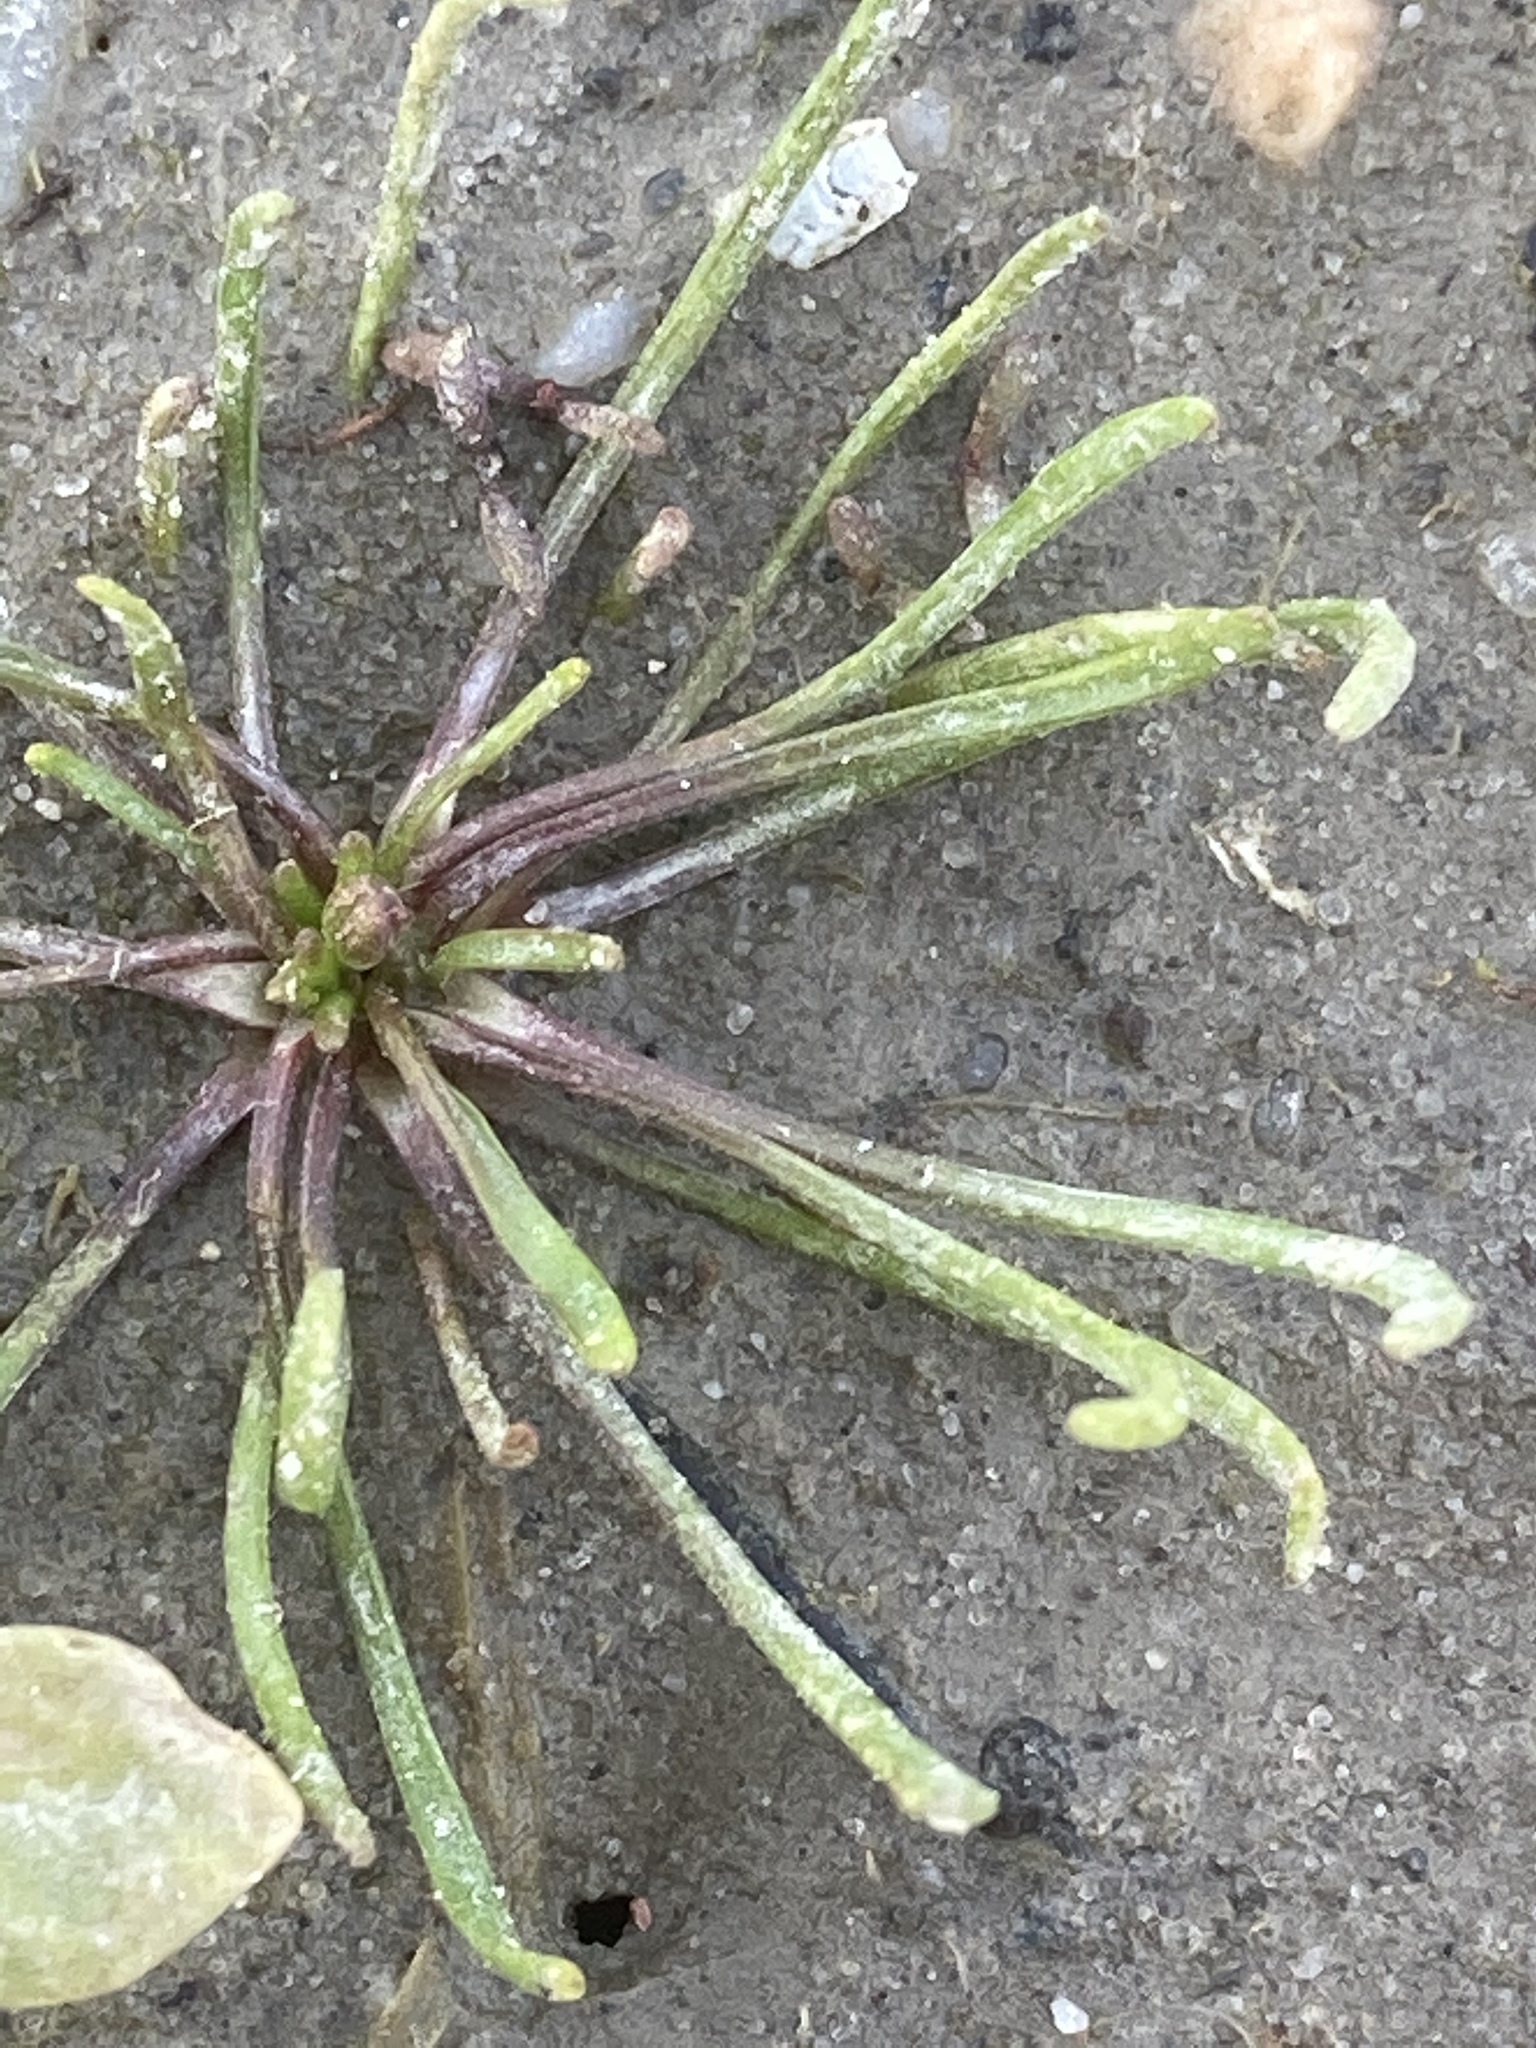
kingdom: Plantae
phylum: Tracheophyta
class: Magnoliopsida
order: Ranunculales
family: Ranunculaceae
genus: Myosurus
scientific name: Myosurus minimus
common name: Mousetail
